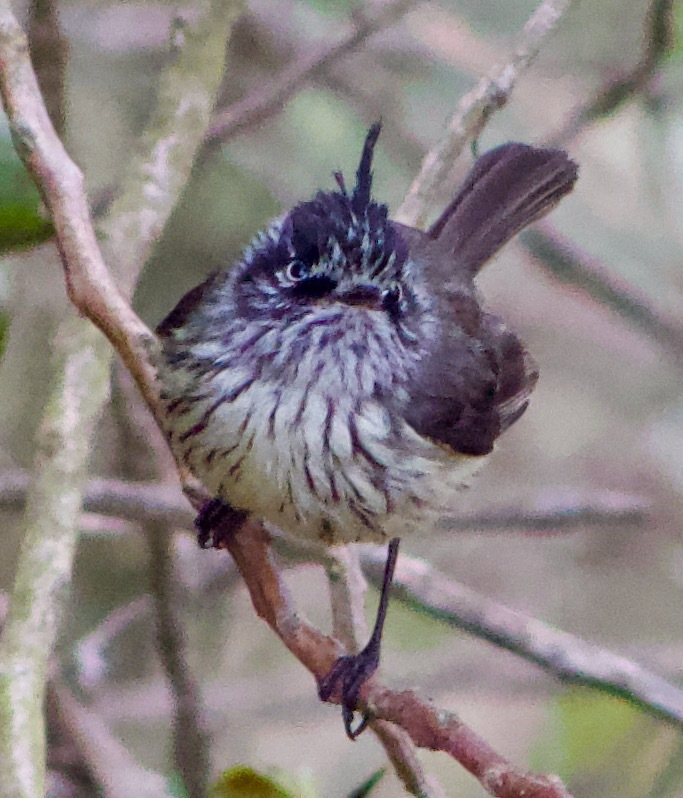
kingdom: Animalia
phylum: Chordata
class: Aves
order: Passeriformes
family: Tyrannidae
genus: Anairetes
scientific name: Anairetes parulus
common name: Tufted tit-tyrant
